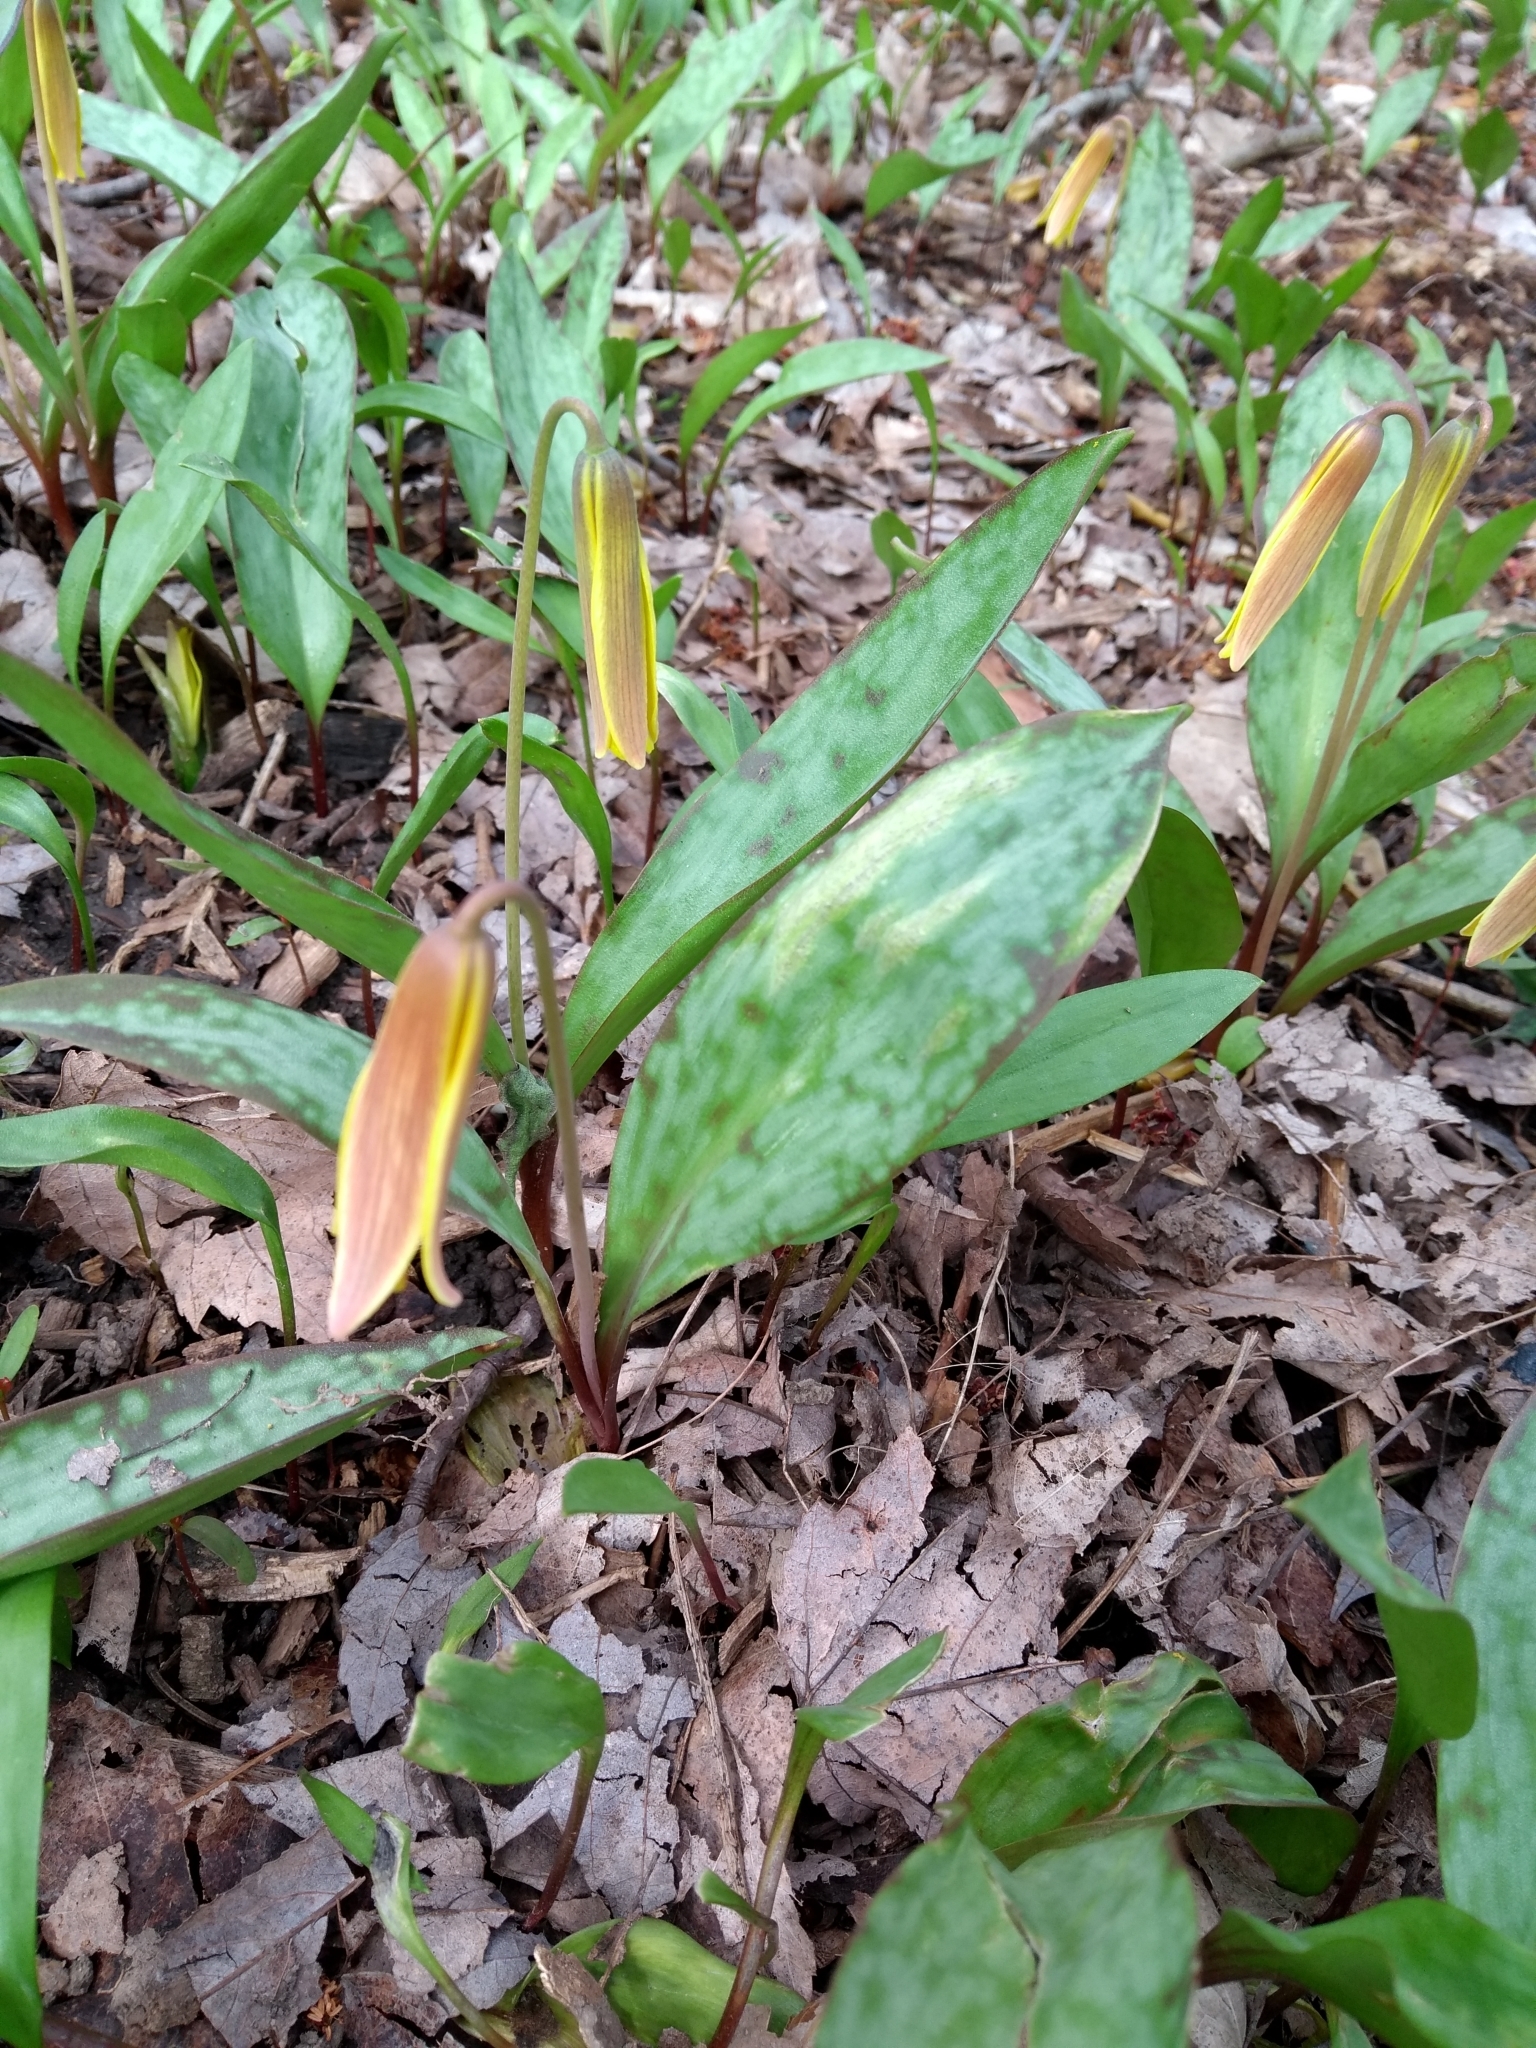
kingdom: Plantae
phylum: Tracheophyta
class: Liliopsida
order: Liliales
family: Liliaceae
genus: Erythronium
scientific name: Erythronium americanum
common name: Yellow adder's-tongue
